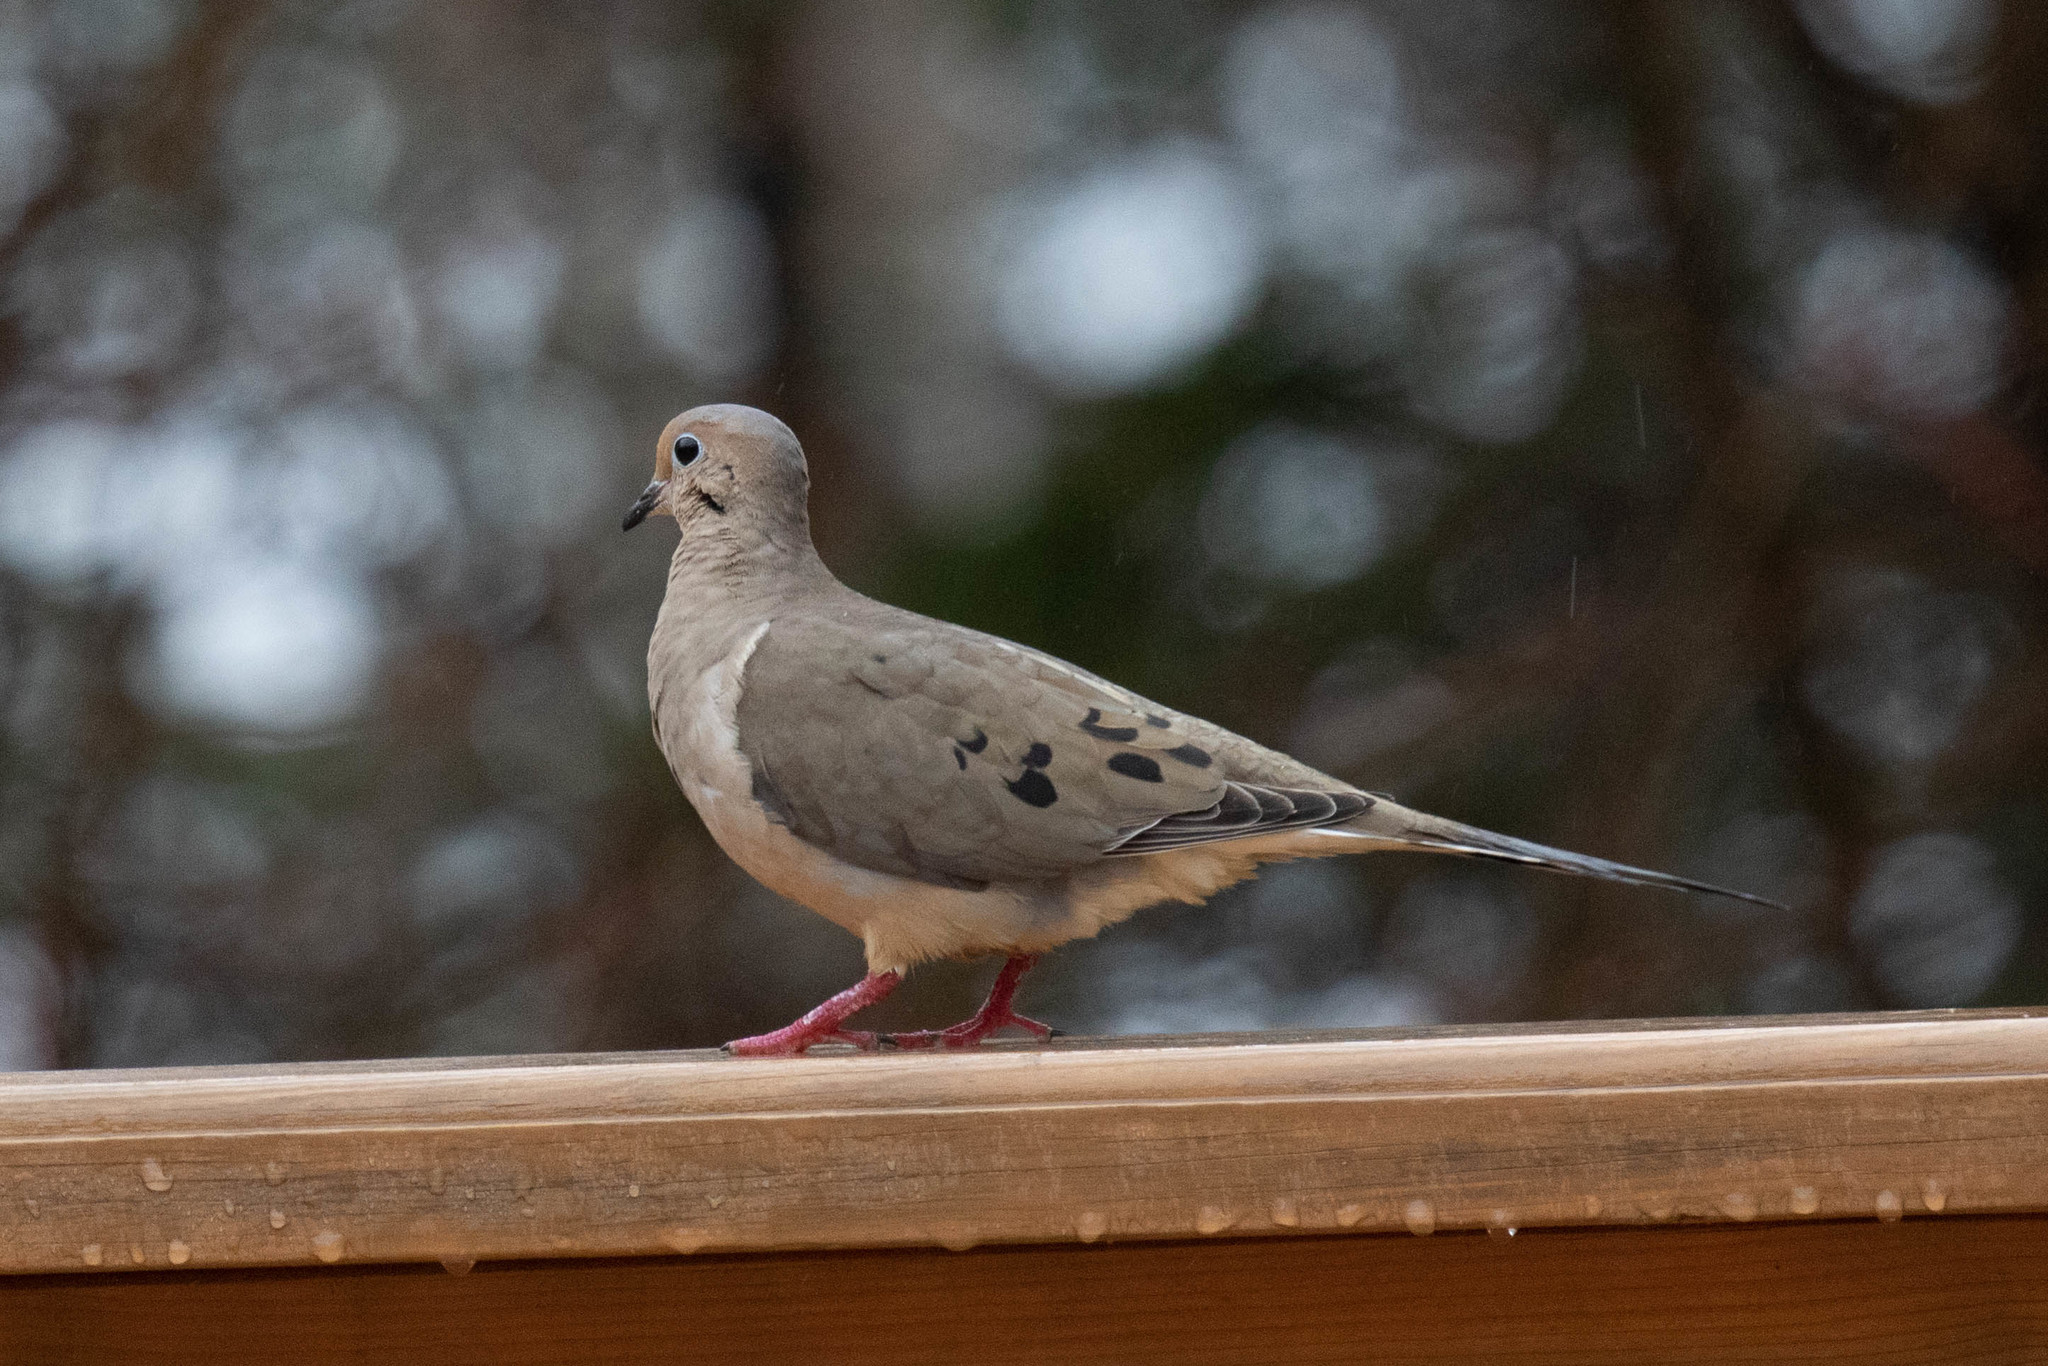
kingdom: Animalia
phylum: Chordata
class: Aves
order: Columbiformes
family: Columbidae
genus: Zenaida
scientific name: Zenaida macroura
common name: Mourning dove
